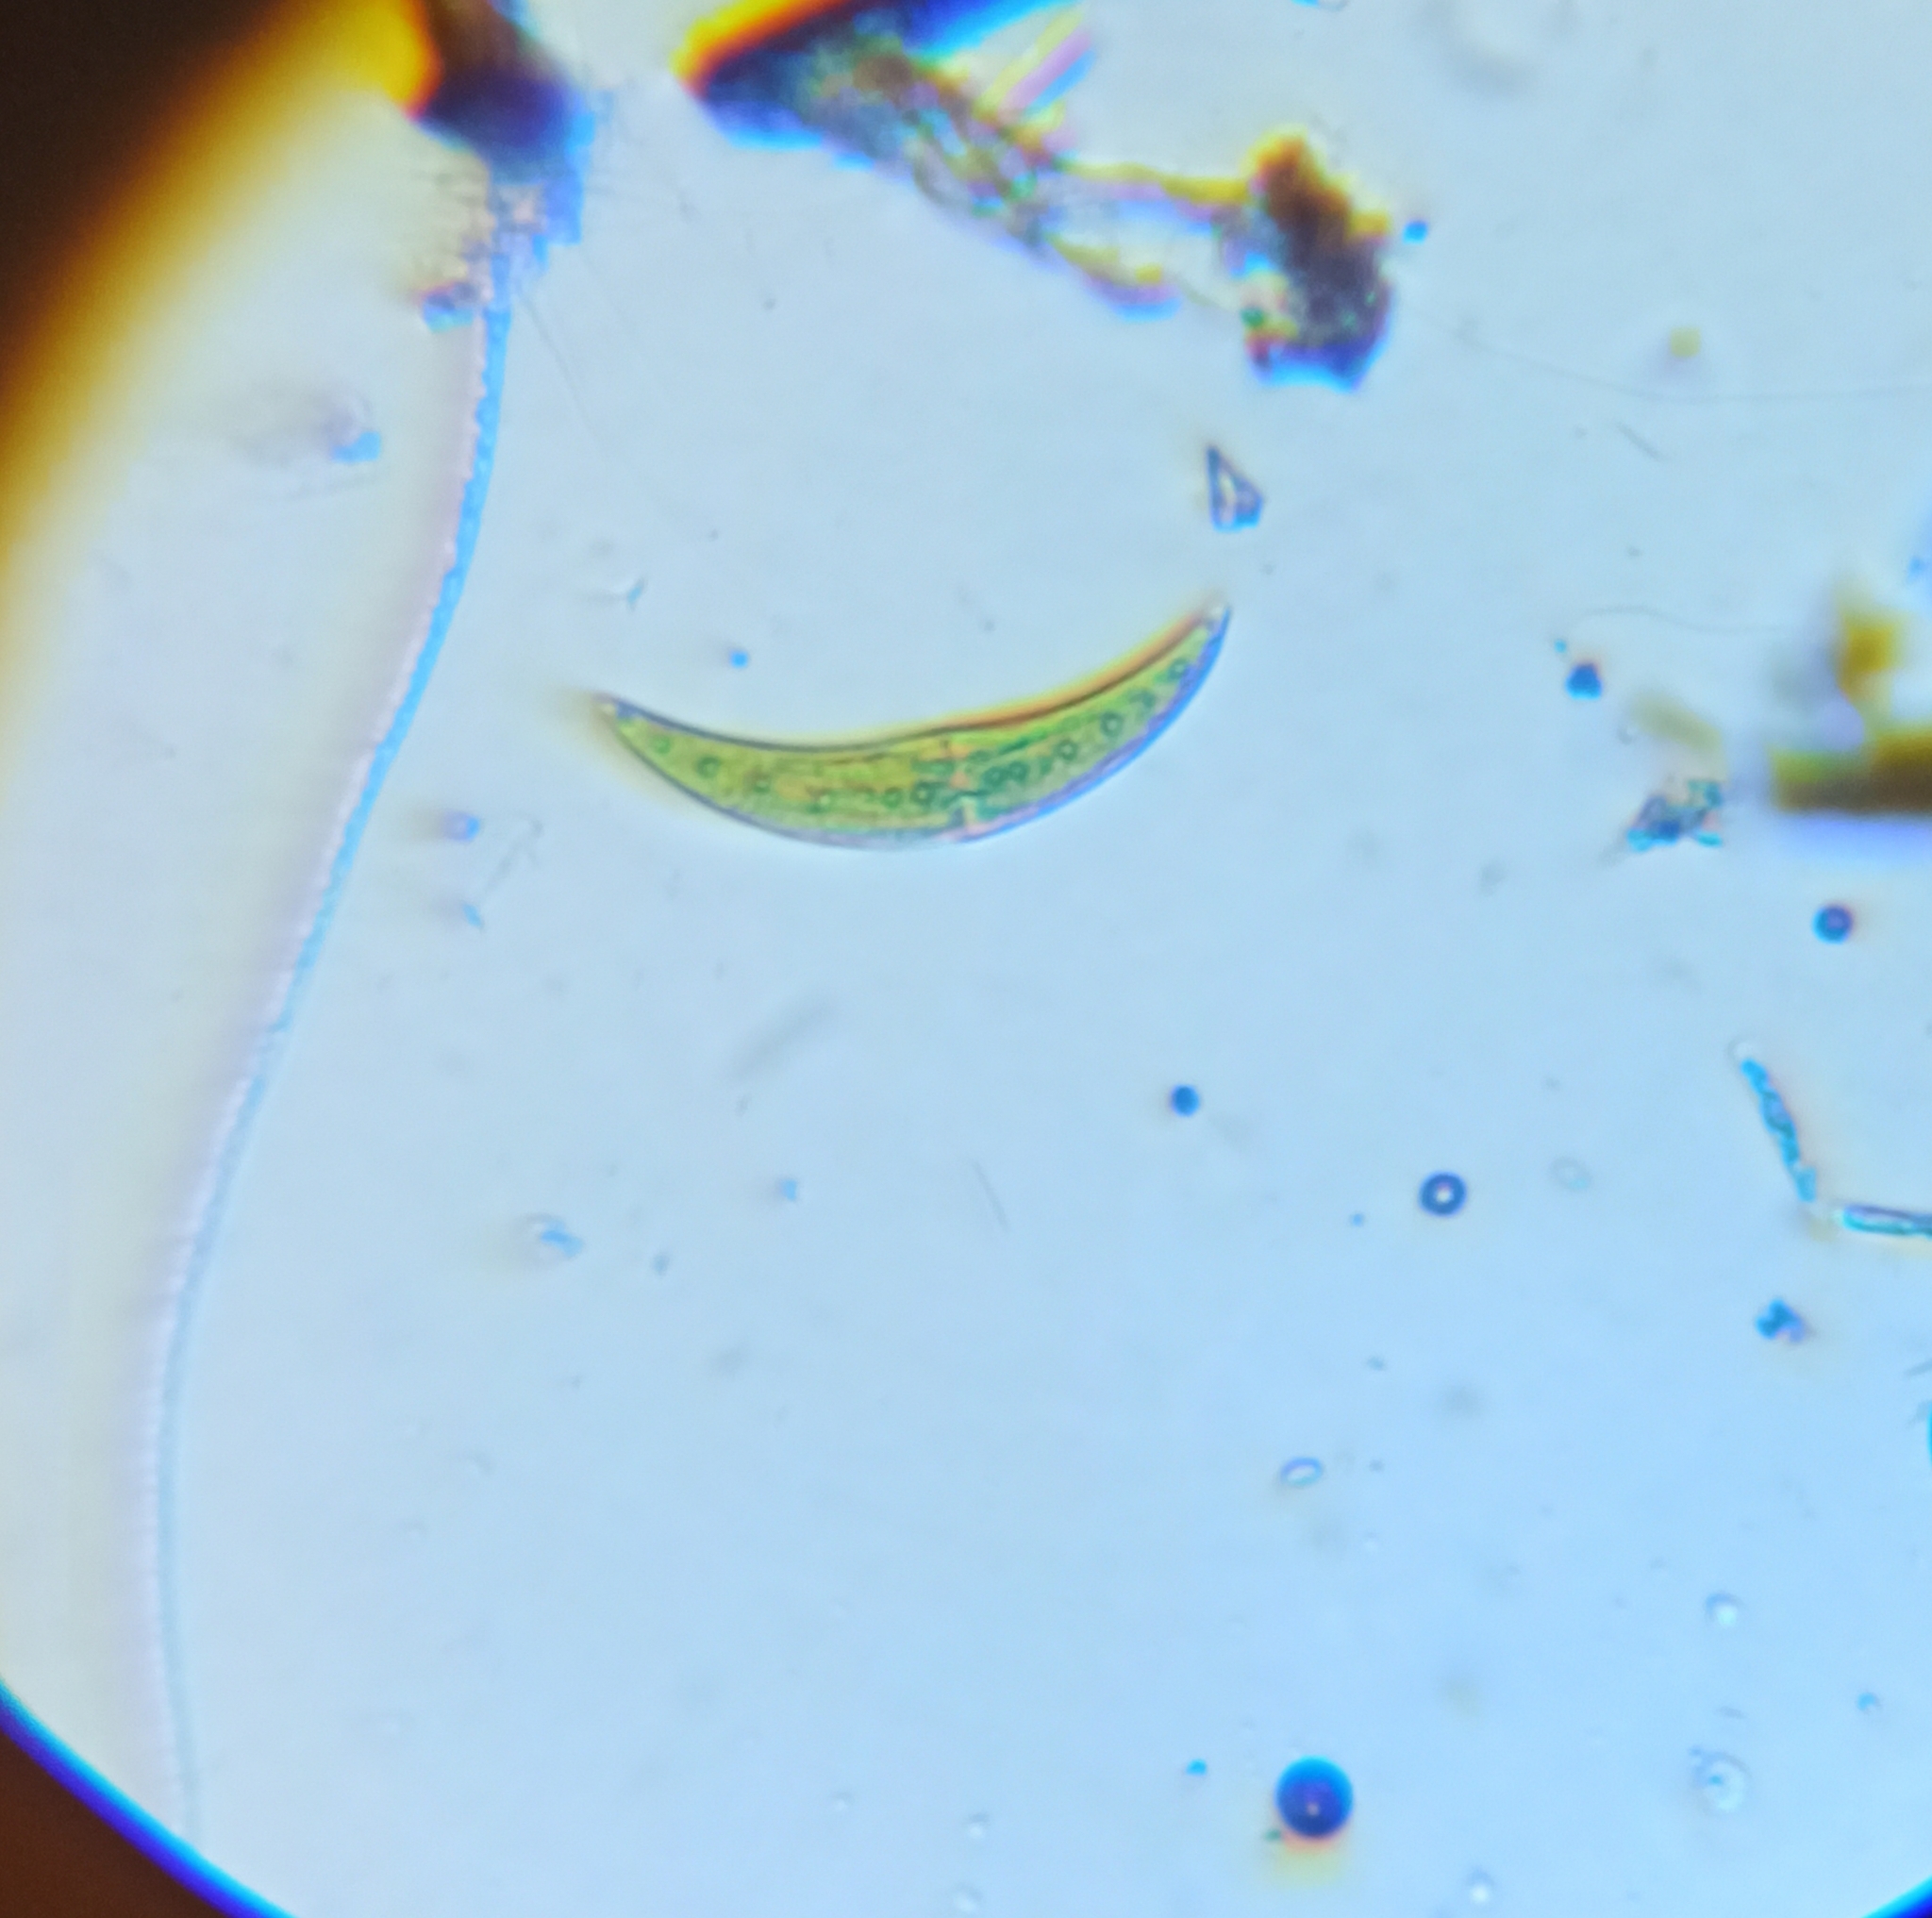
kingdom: Plantae
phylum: Charophyta
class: Zygnematophyceae
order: Zygnematales
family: Closteriaceae
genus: Closterium
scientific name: Closterium moniliferum
